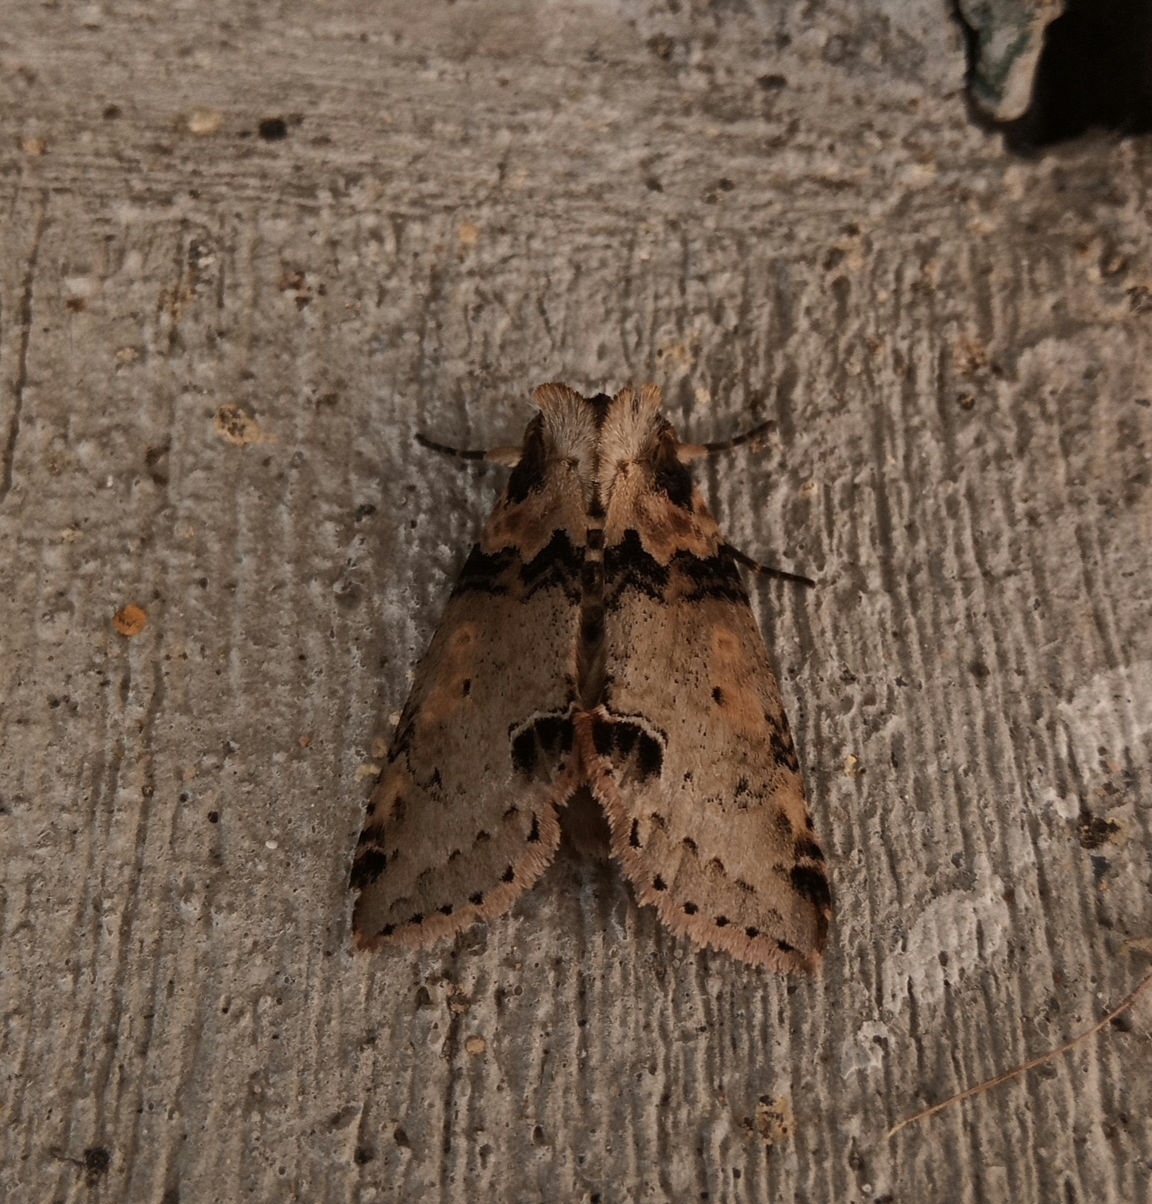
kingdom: Animalia
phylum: Arthropoda
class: Insecta
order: Lepidoptera
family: Drepanidae
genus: Pseudothyatira
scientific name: Pseudothyatira cymatophoroides
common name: Tufted thyatirid moth
